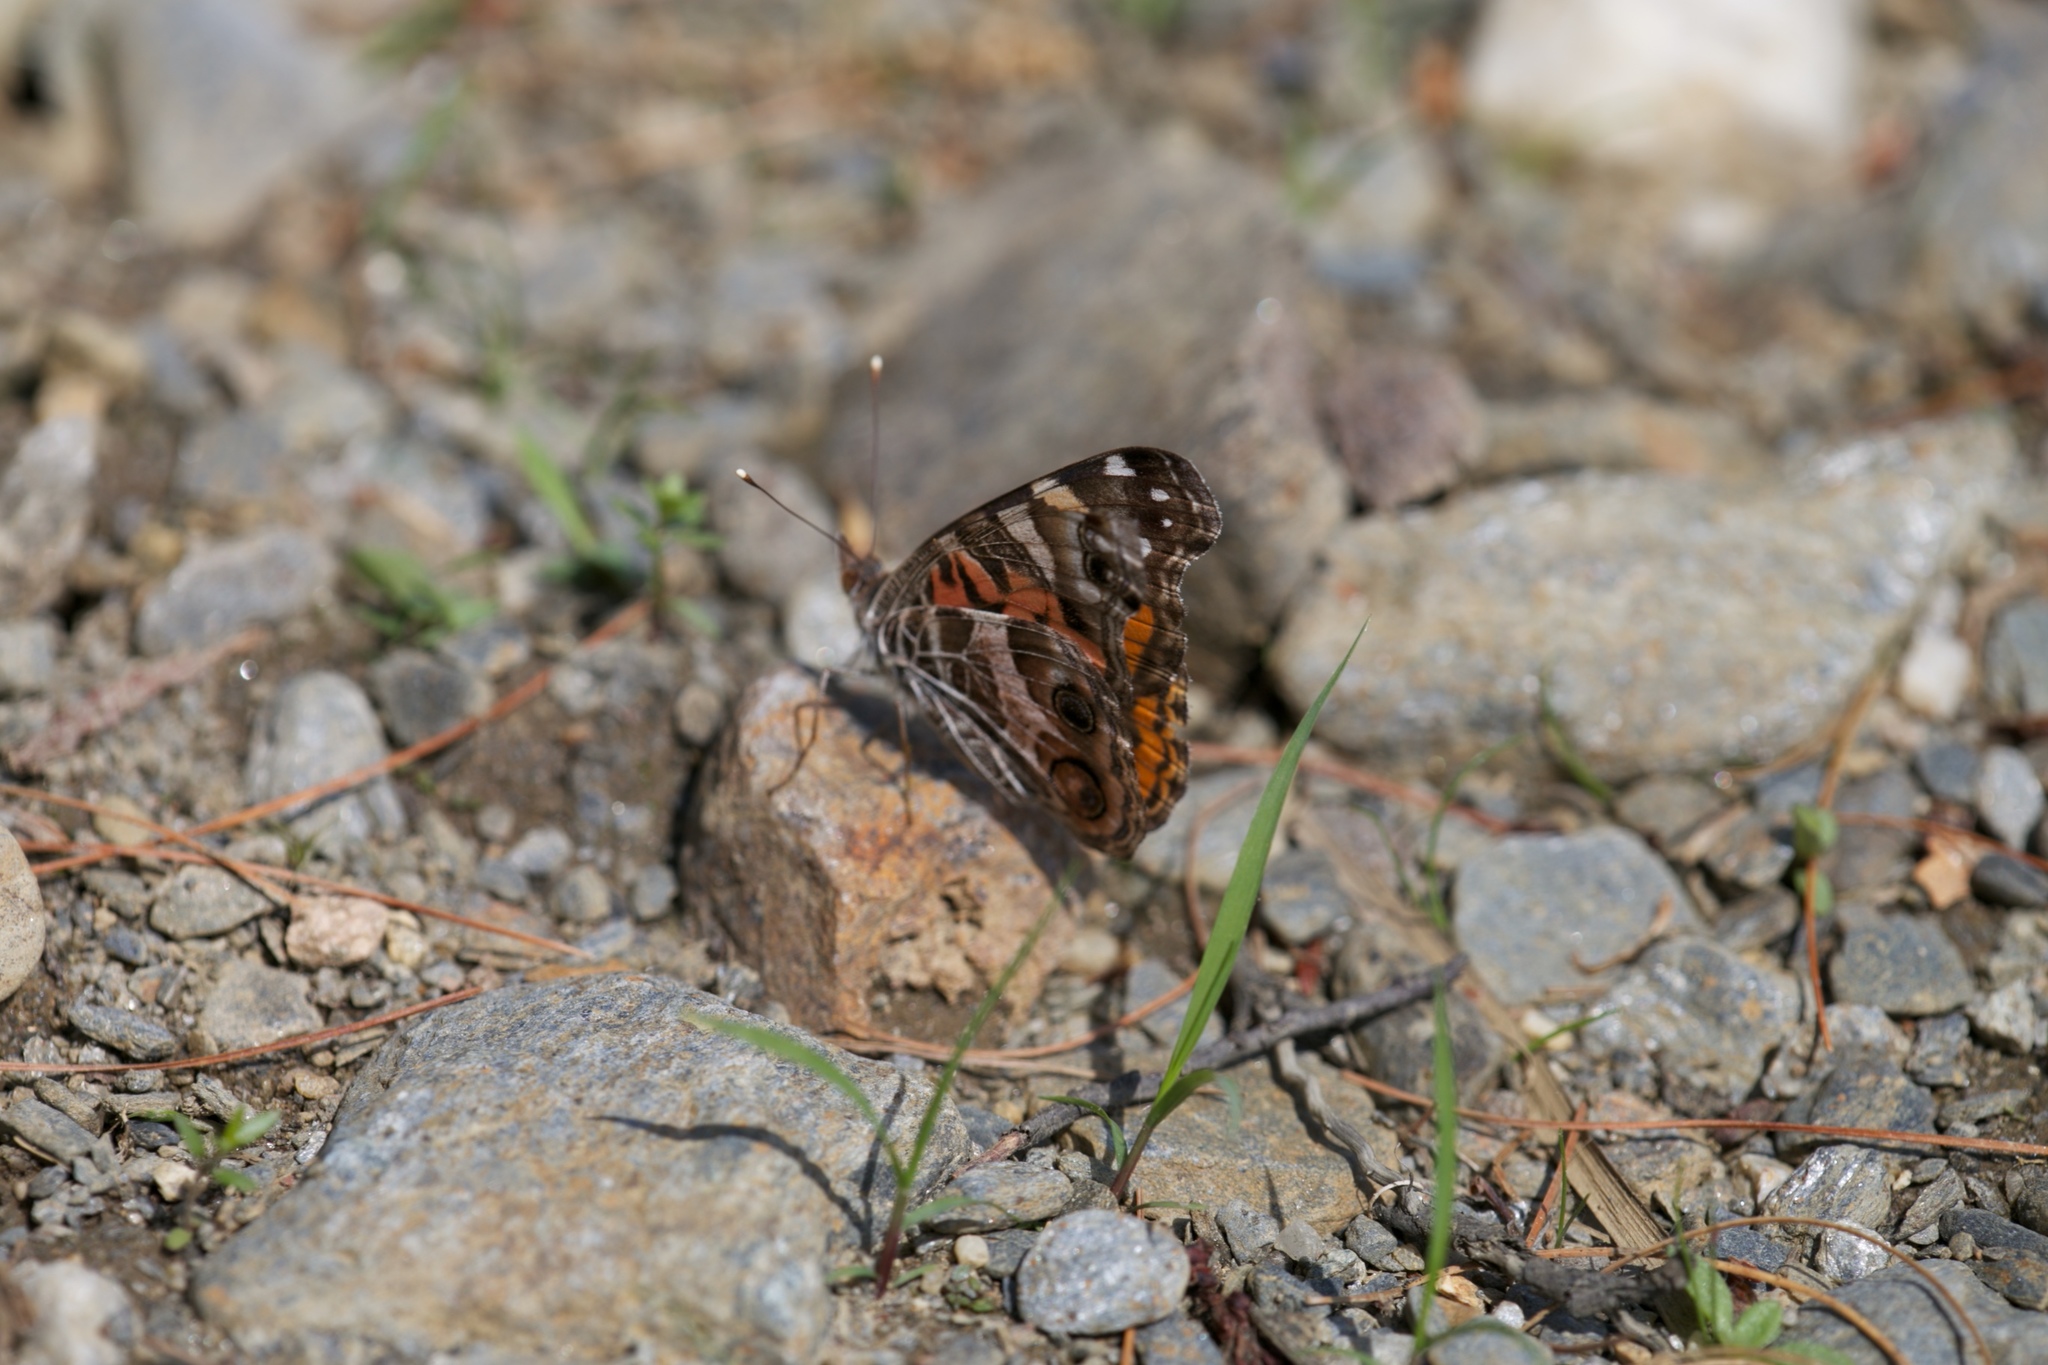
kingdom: Animalia
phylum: Arthropoda
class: Insecta
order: Lepidoptera
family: Nymphalidae
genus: Vanessa
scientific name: Vanessa virginiensis
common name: American lady
